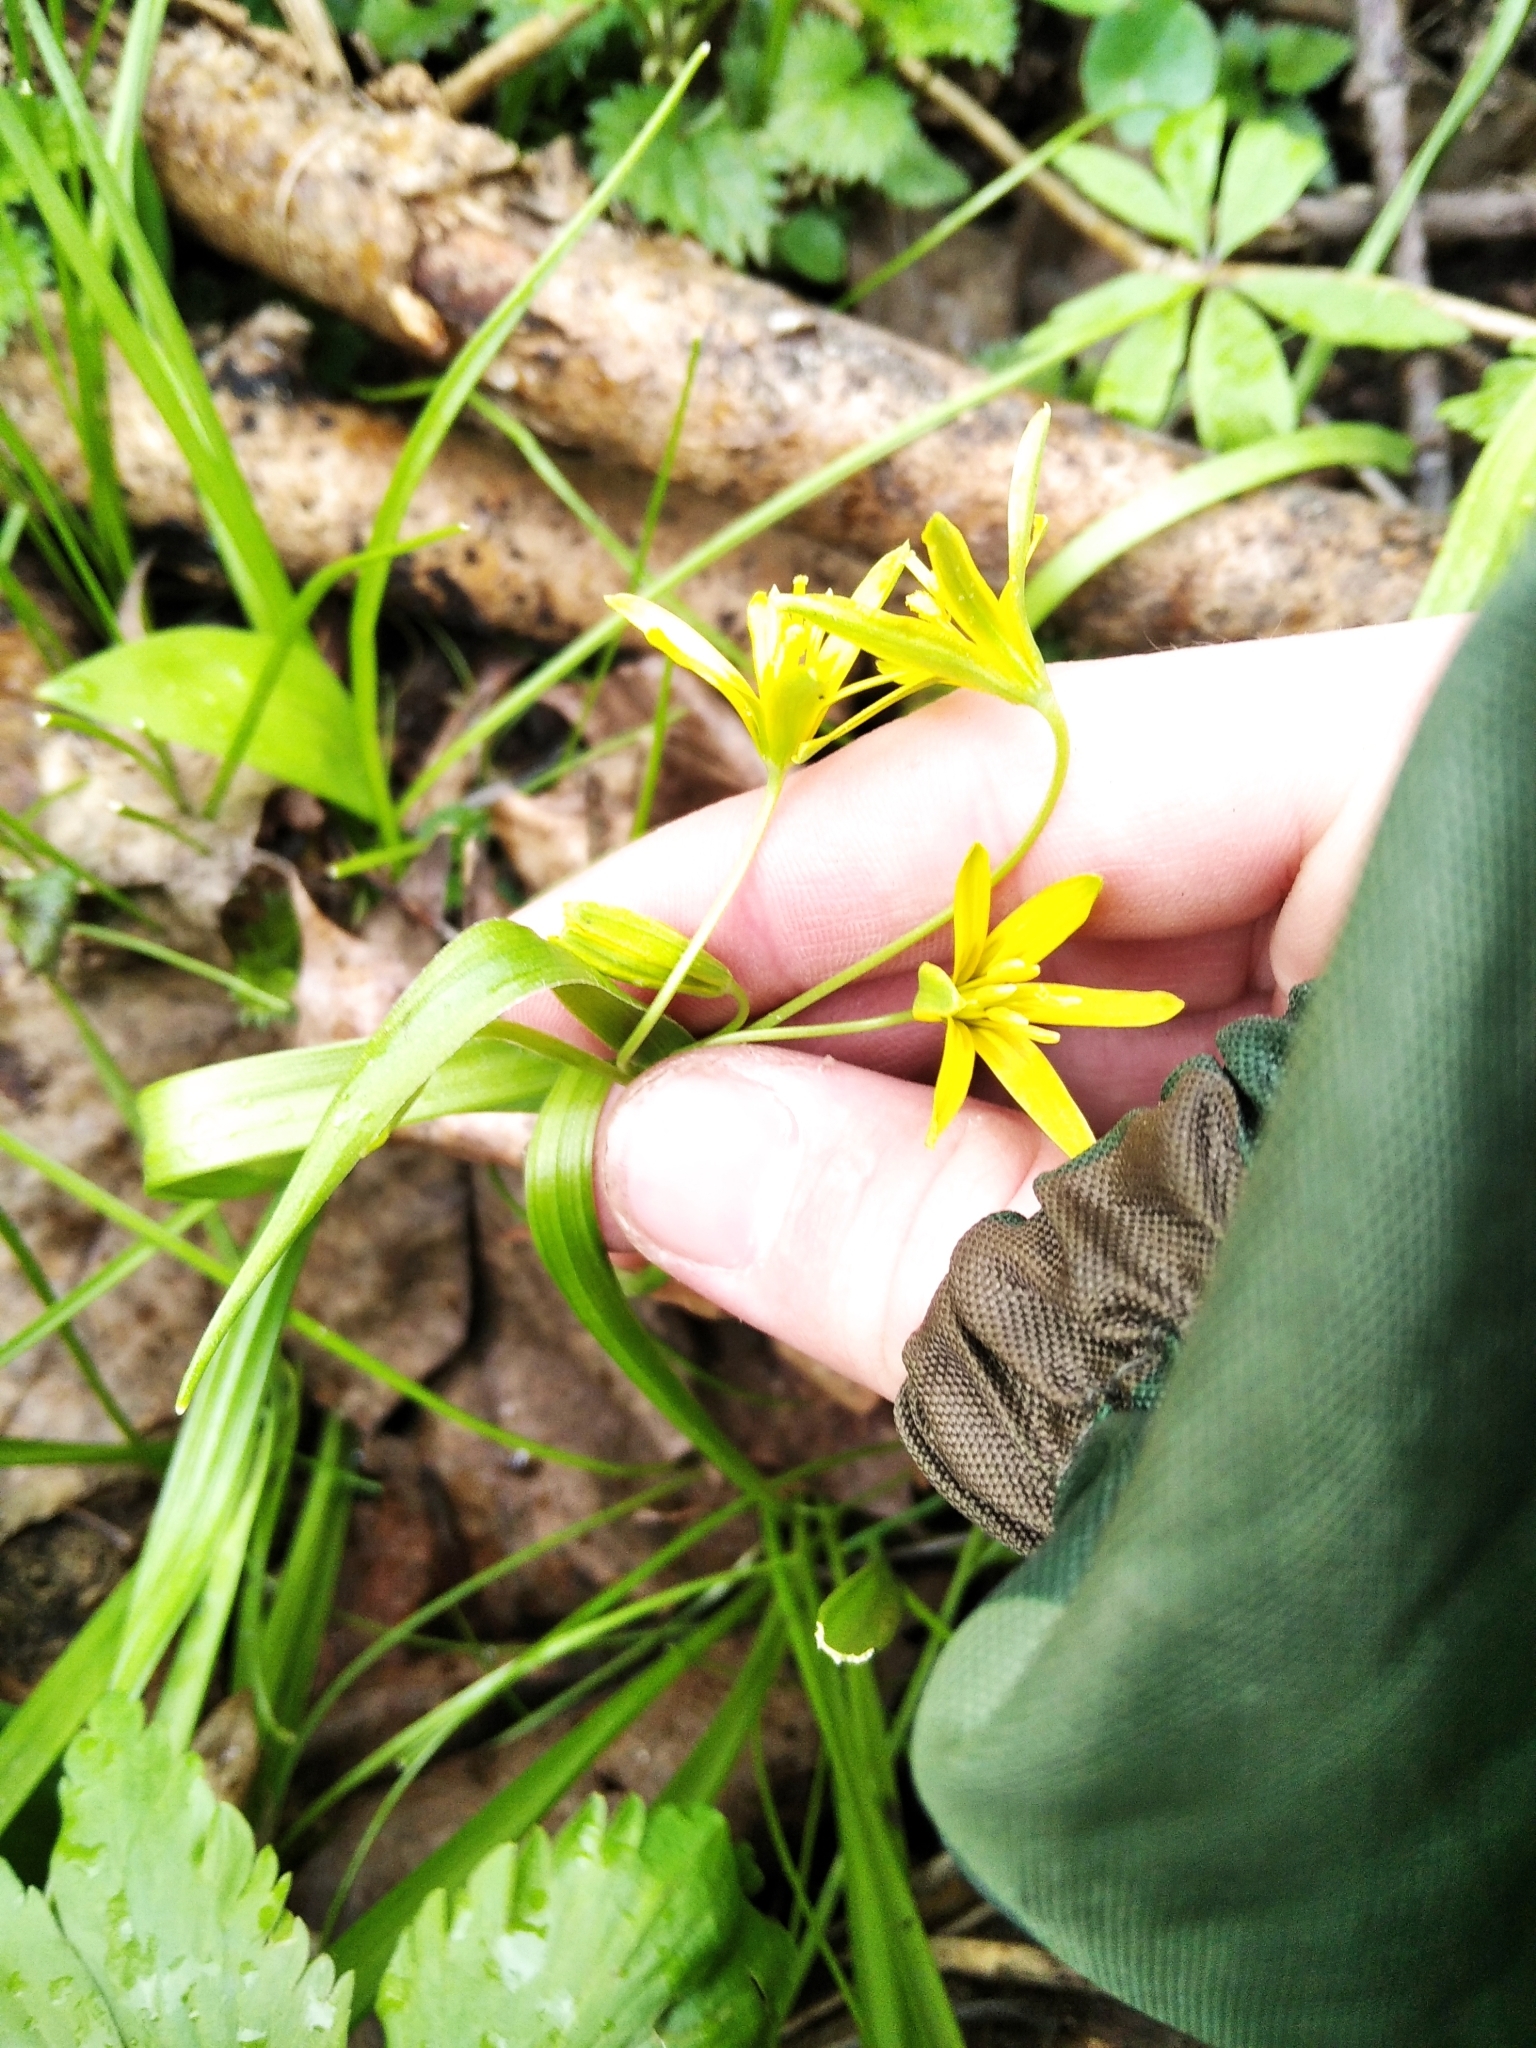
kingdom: Plantae
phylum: Tracheophyta
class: Liliopsida
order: Liliales
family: Liliaceae
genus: Gagea
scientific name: Gagea lutea
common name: Yellow star-of-bethlehem
